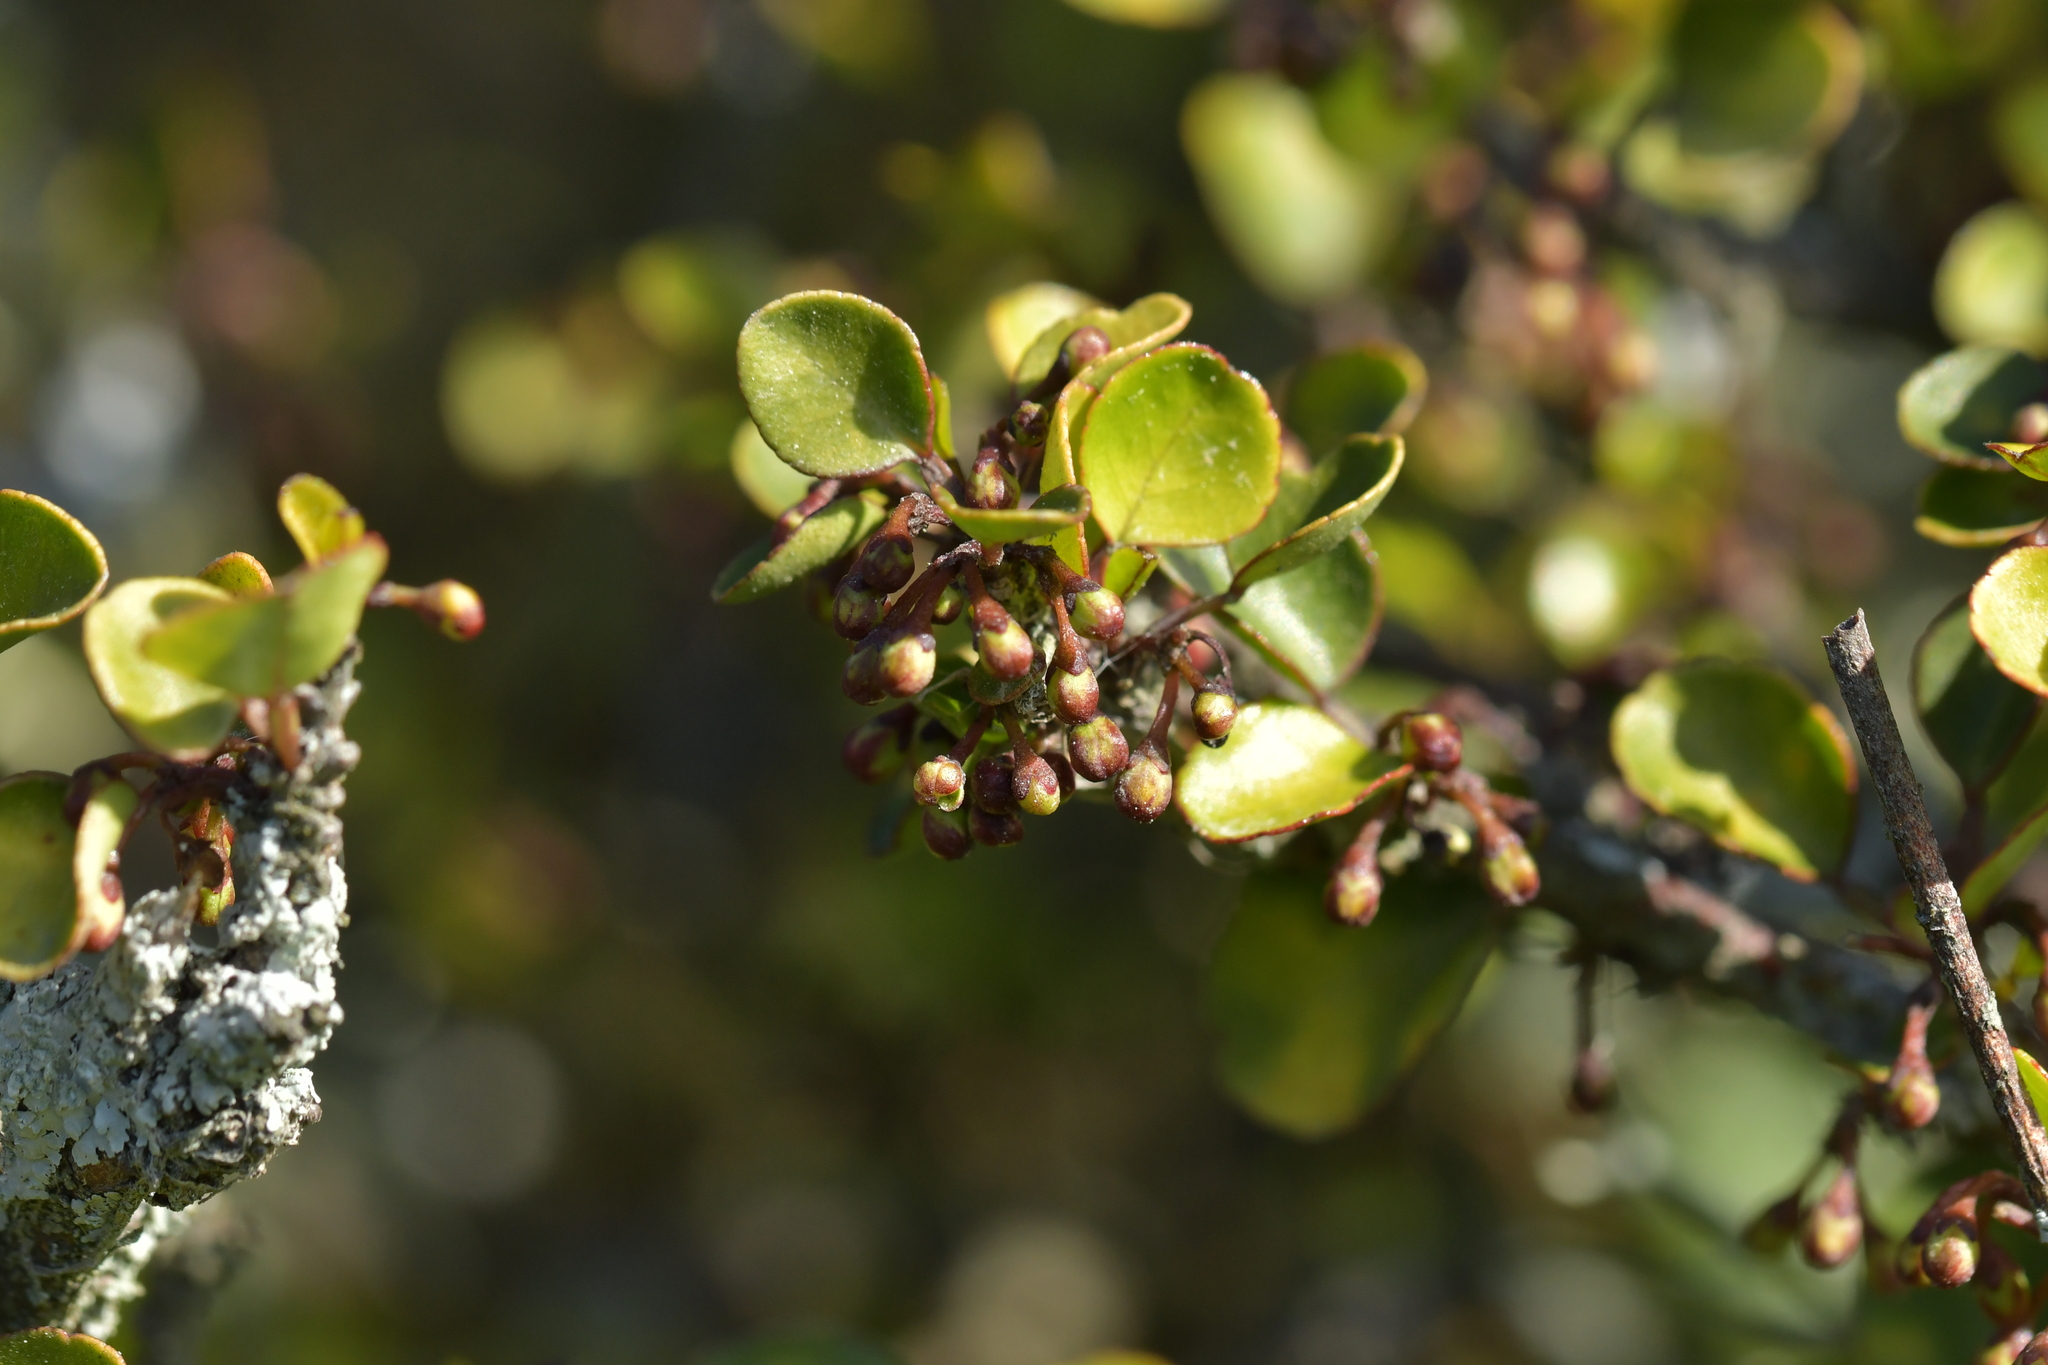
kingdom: Plantae
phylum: Tracheophyta
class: Magnoliopsida
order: Sapindales
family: Rutaceae
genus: Melicope
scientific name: Melicope simplex
